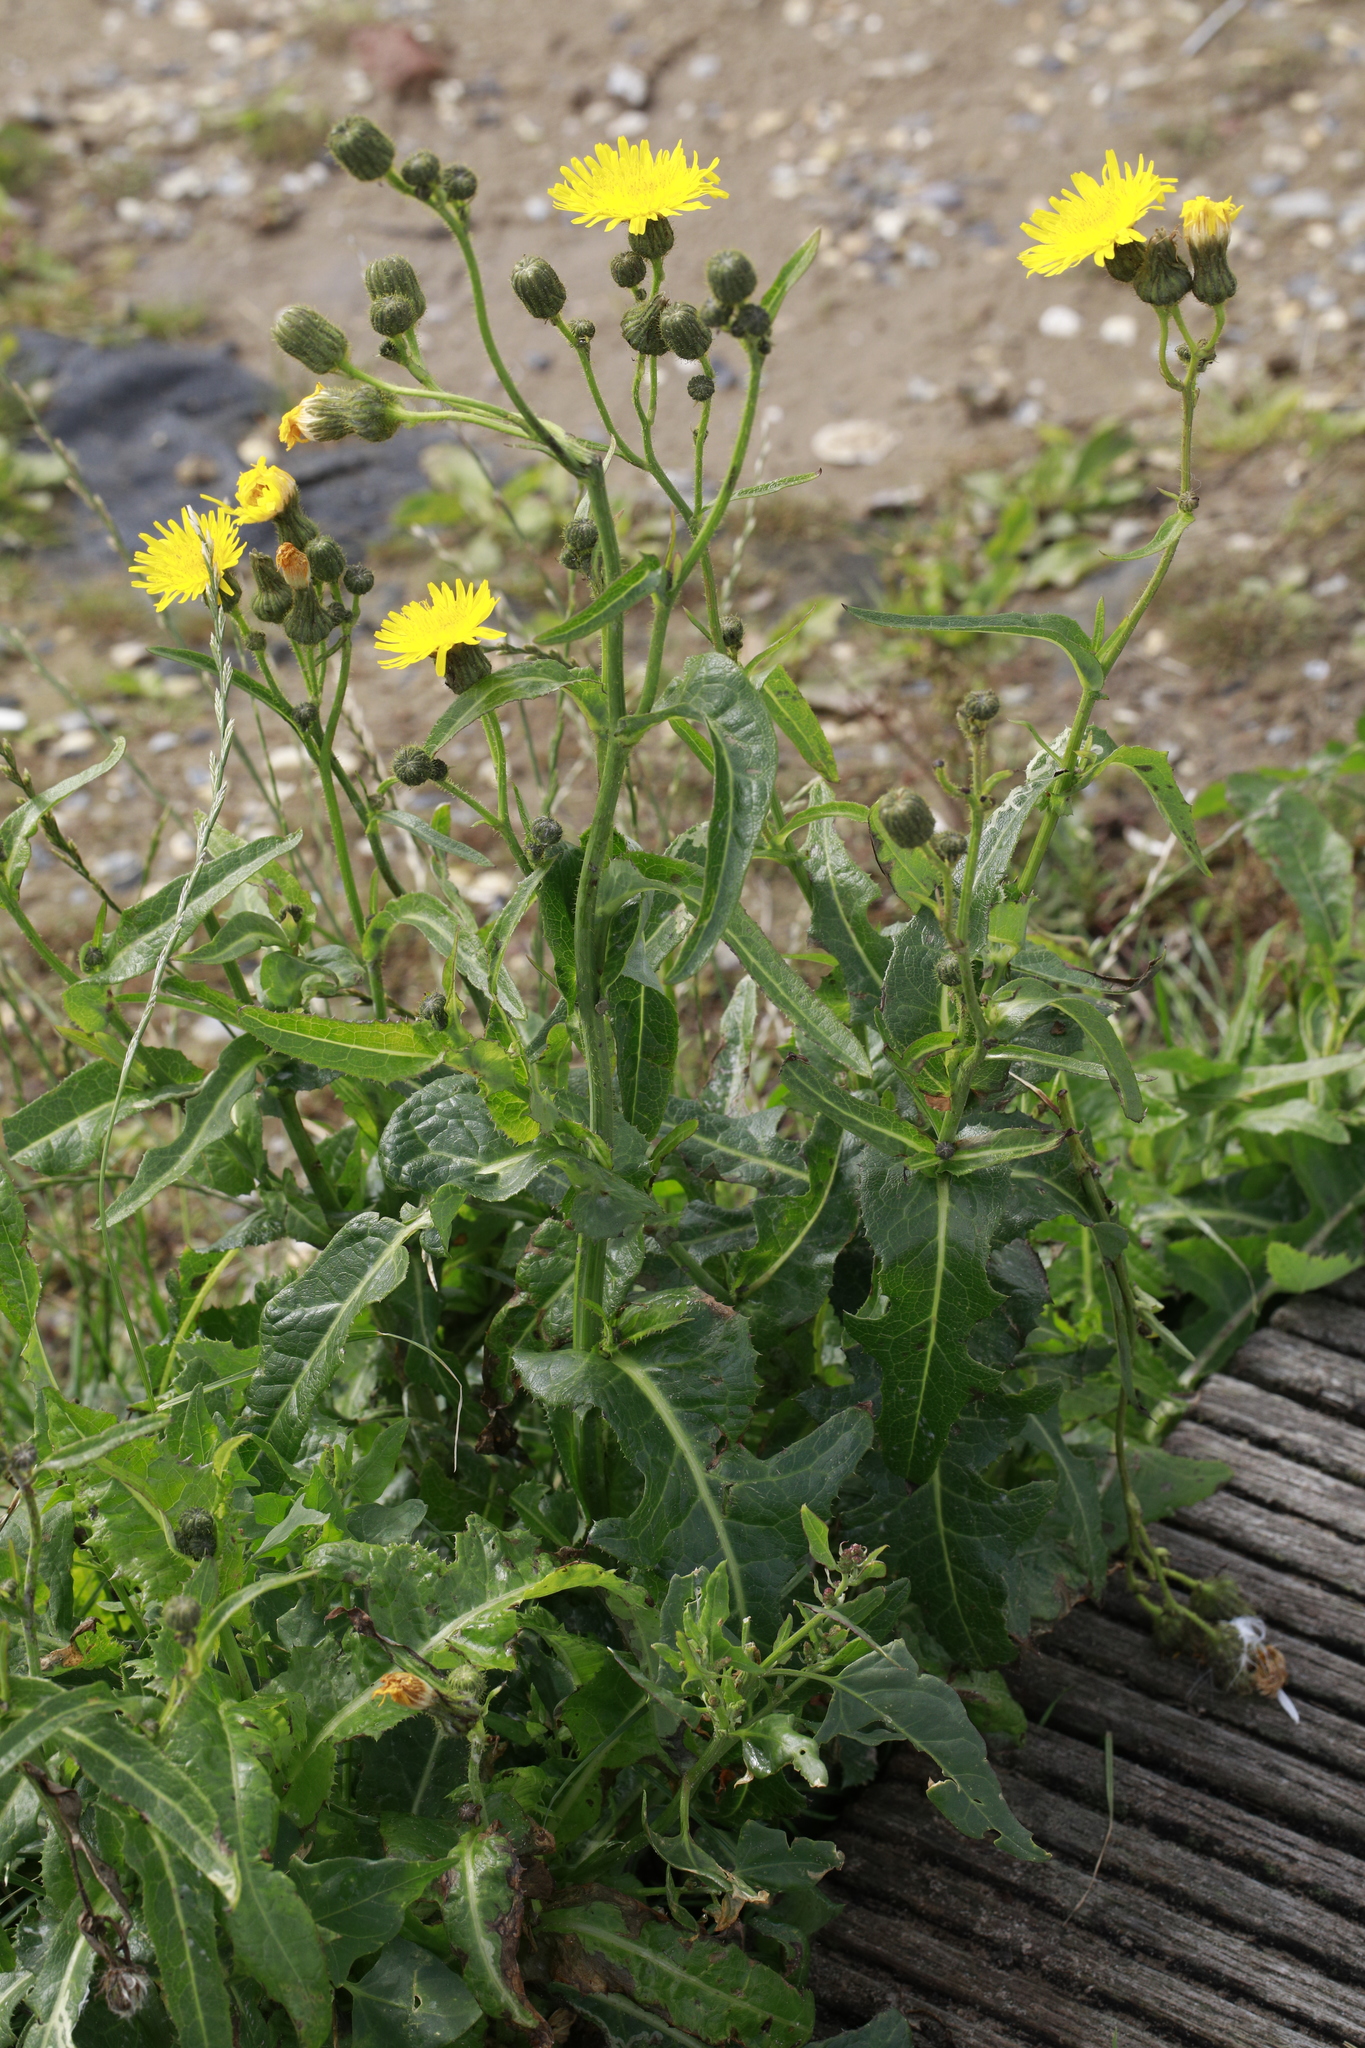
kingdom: Plantae
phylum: Tracheophyta
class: Magnoliopsida
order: Asterales
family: Asteraceae
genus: Sonchus
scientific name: Sonchus arvensis
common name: Perennial sow-thistle
